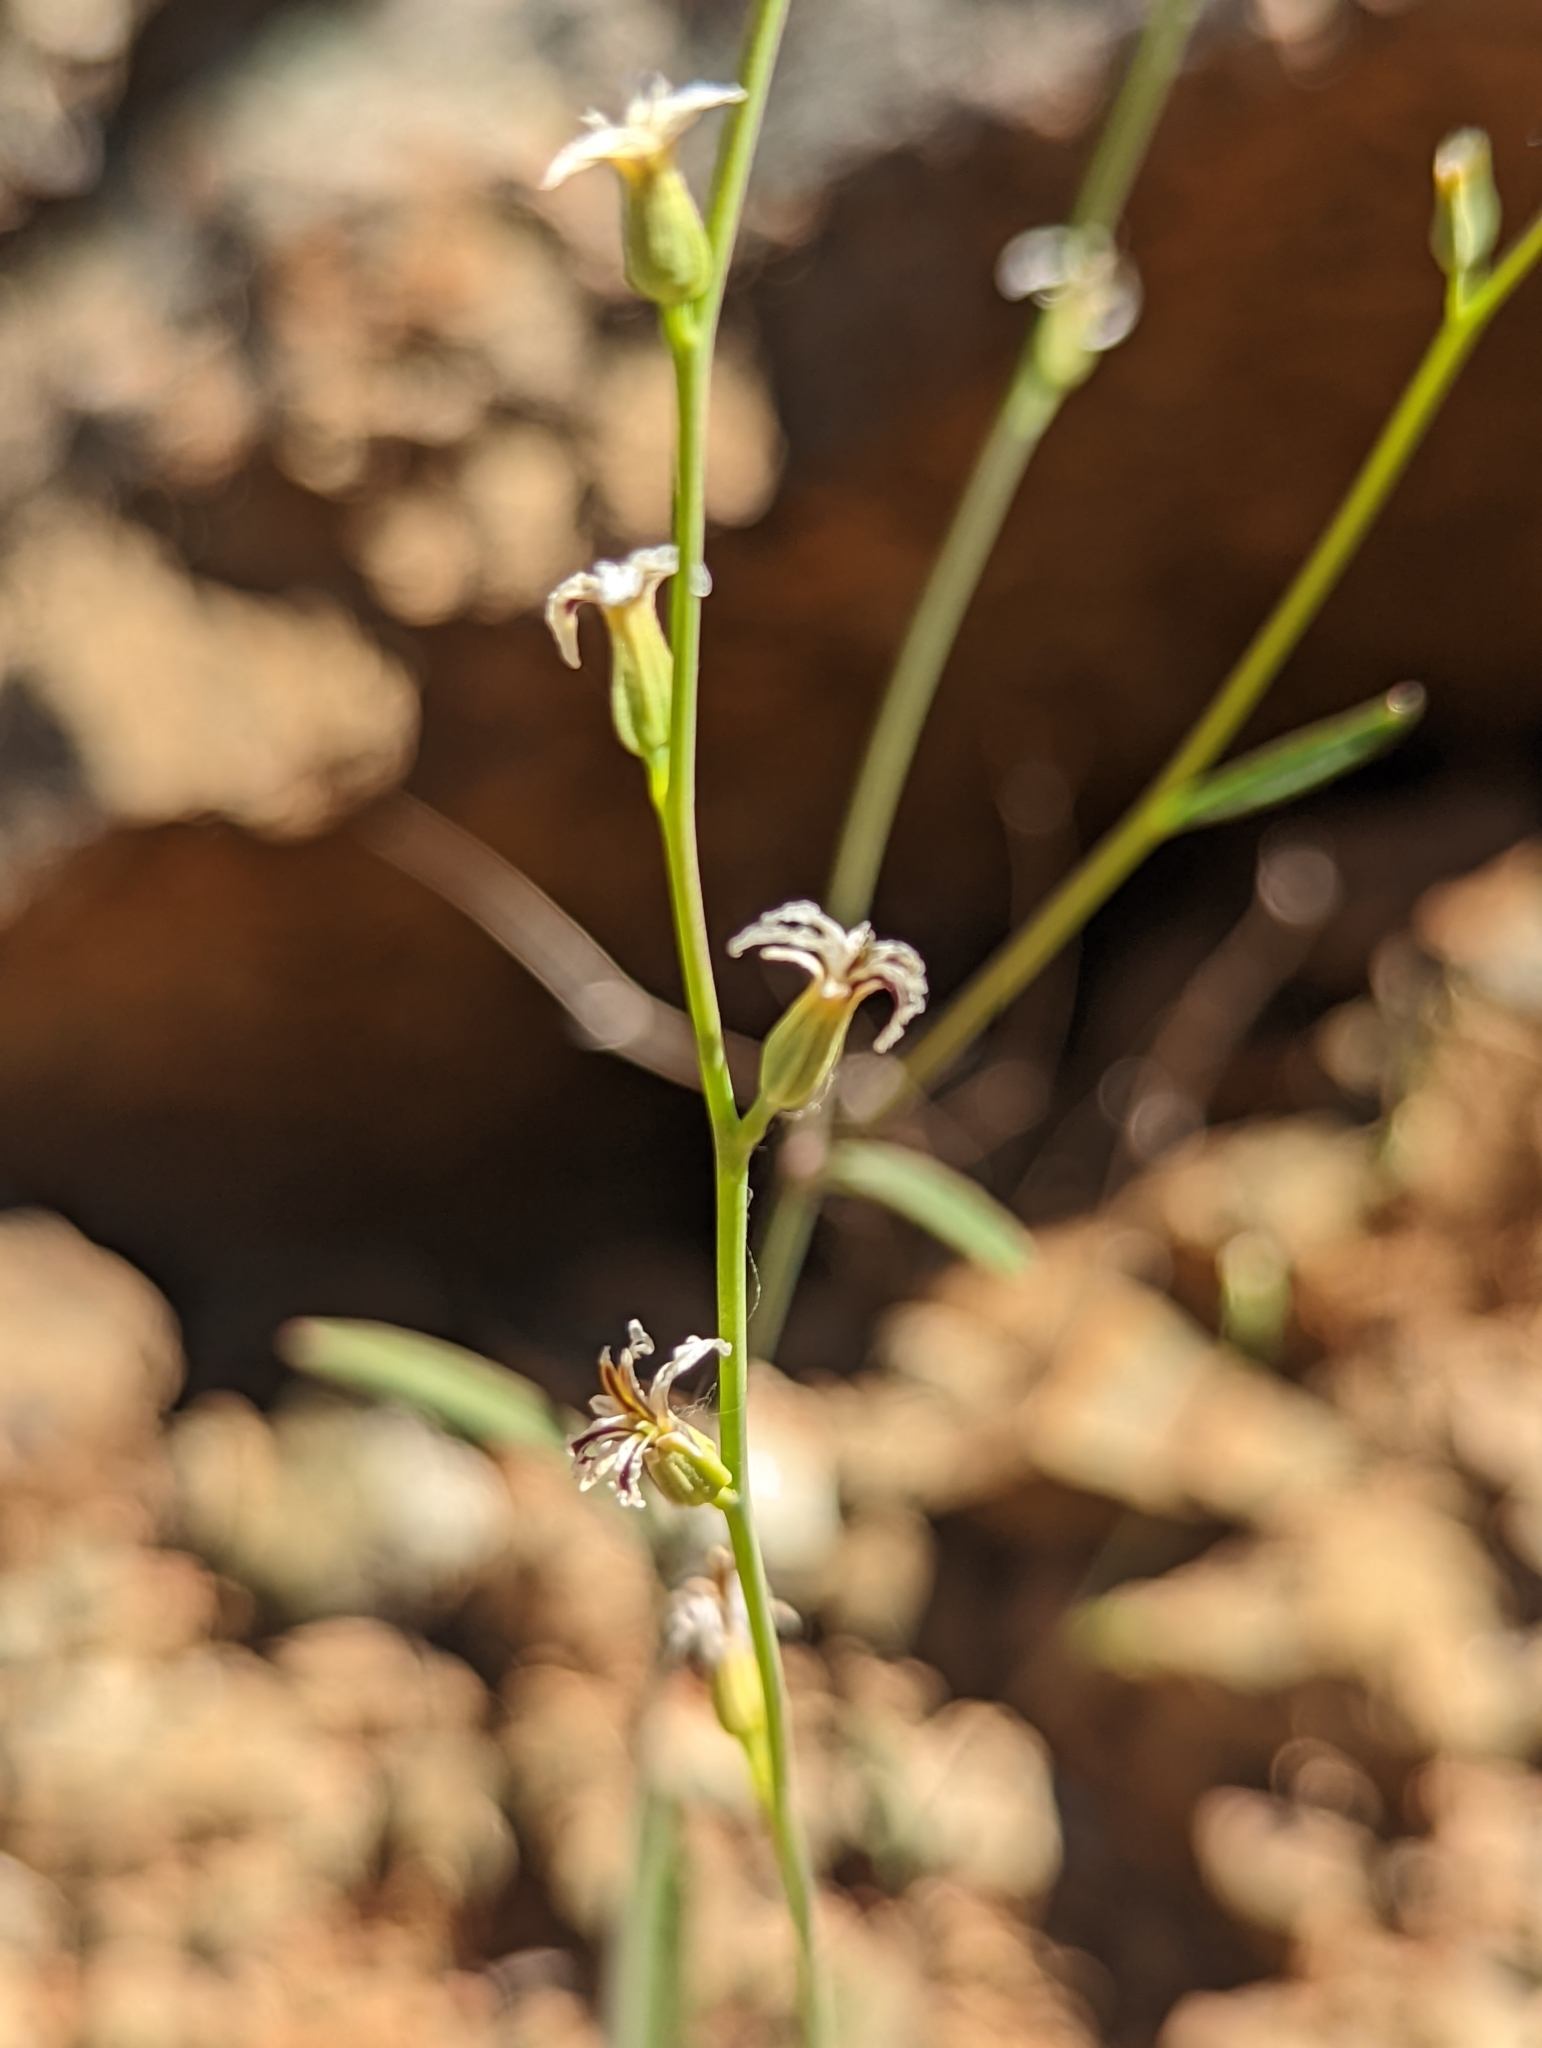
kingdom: Plantae
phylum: Tracheophyta
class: Magnoliopsida
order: Brassicales
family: Brassicaceae
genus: Streptanthus
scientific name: Streptanthus barbiger
